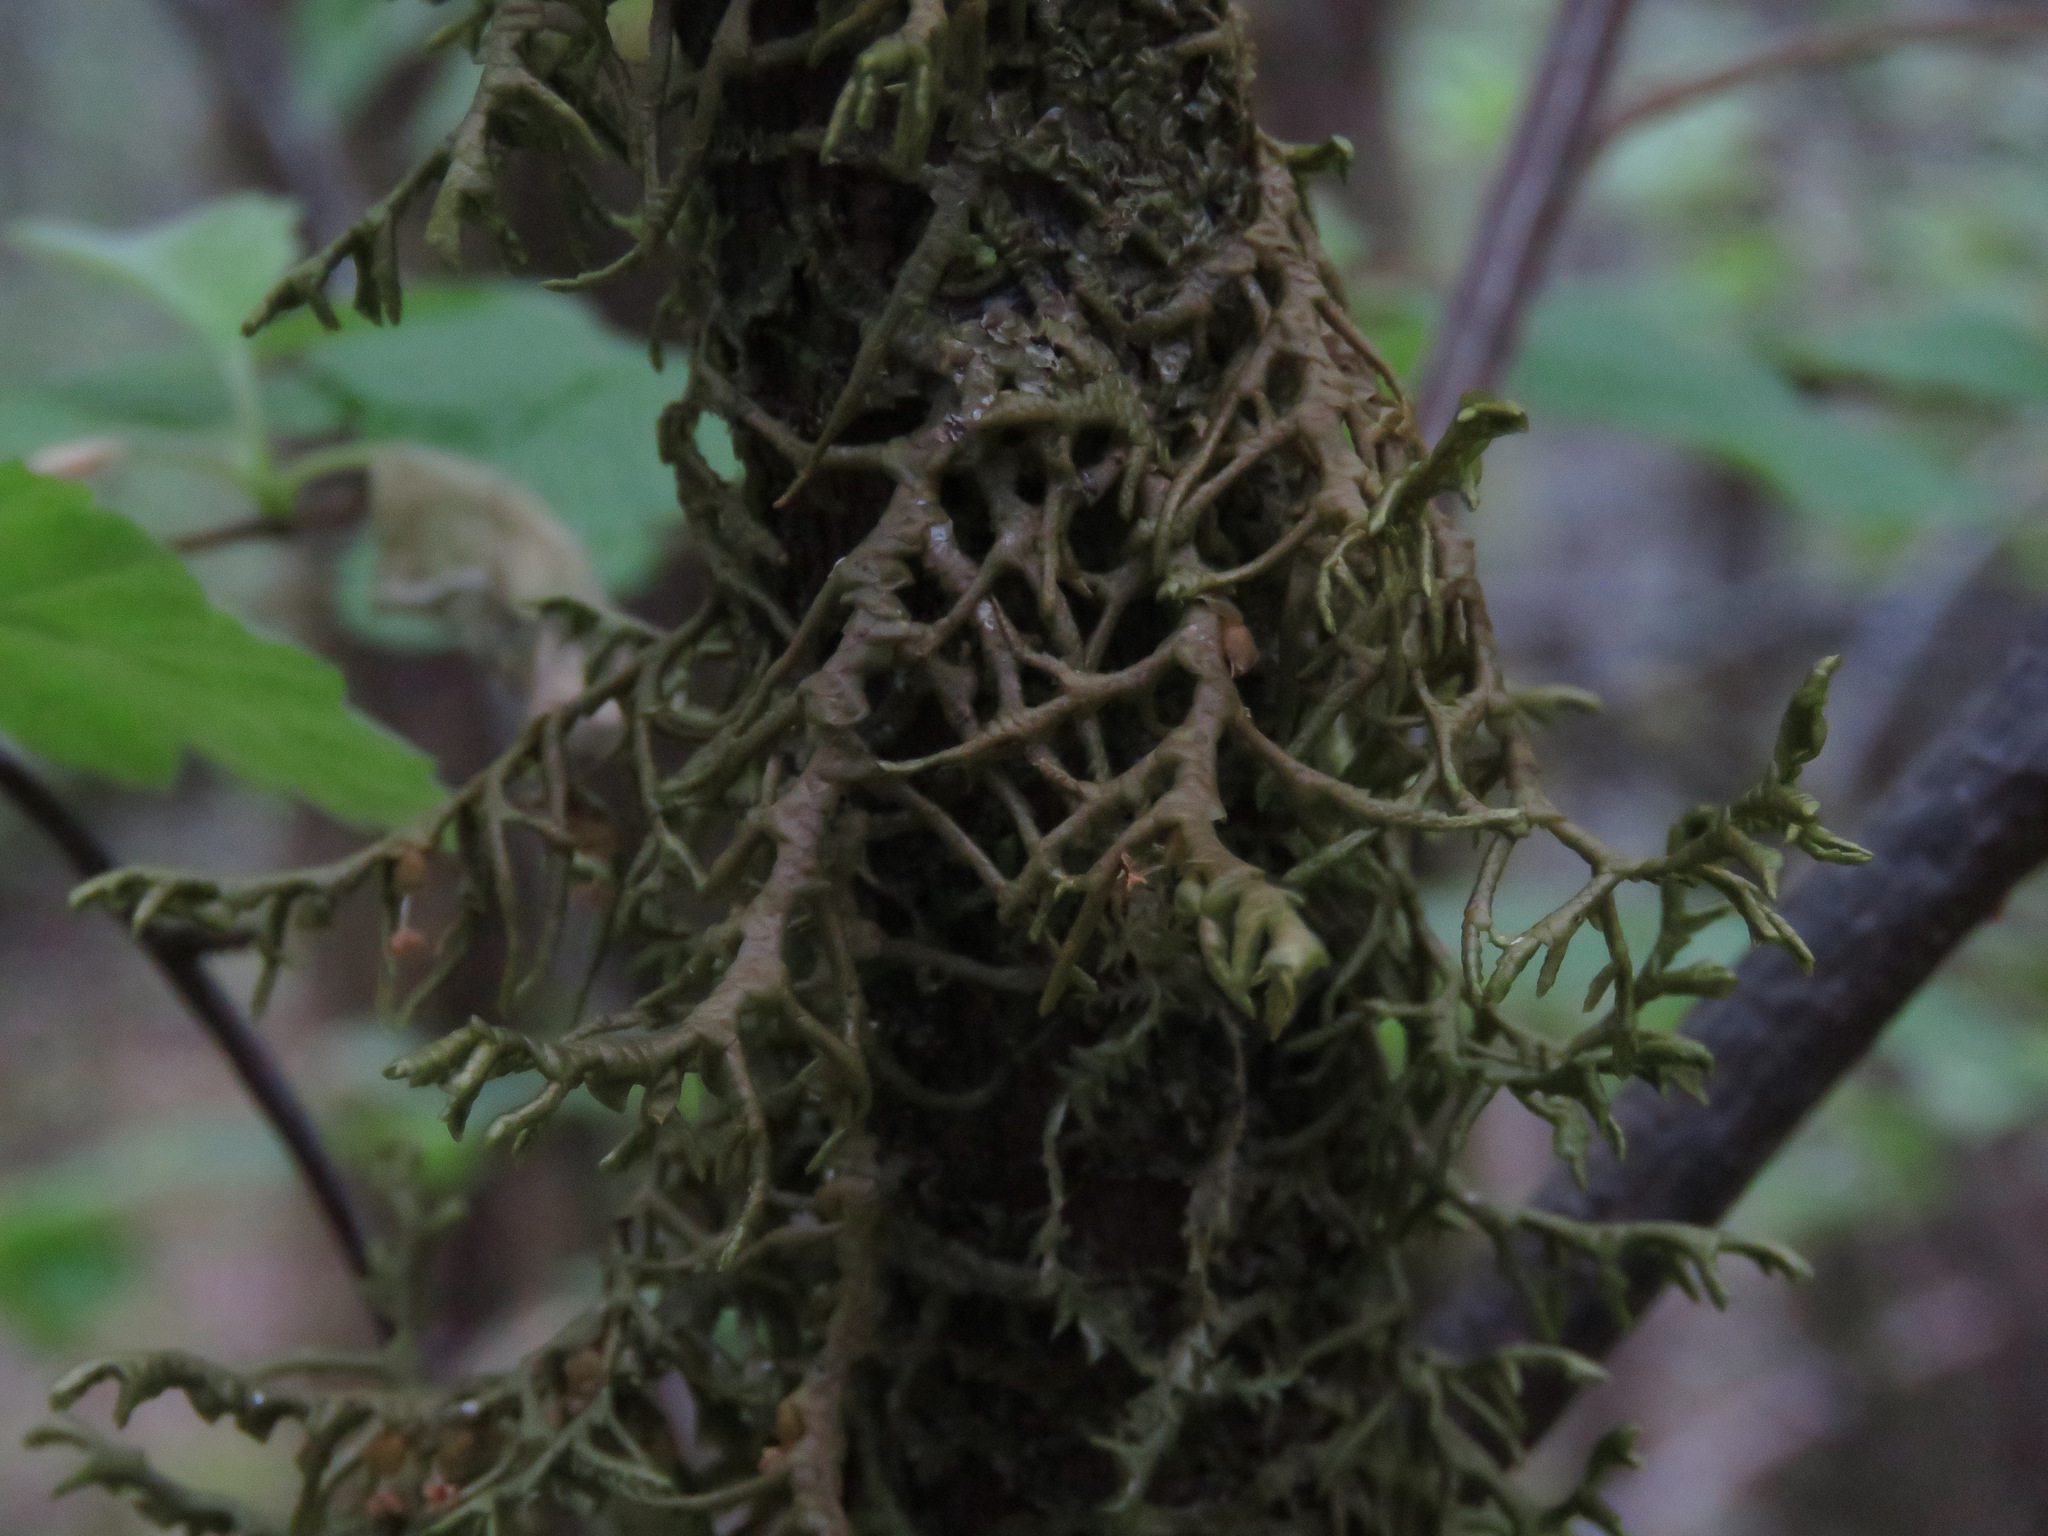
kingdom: Plantae
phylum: Marchantiophyta
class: Jungermanniopsida
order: Porellales
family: Porellaceae
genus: Porella
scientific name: Porella navicularis
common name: Tree ruffle liverwort
